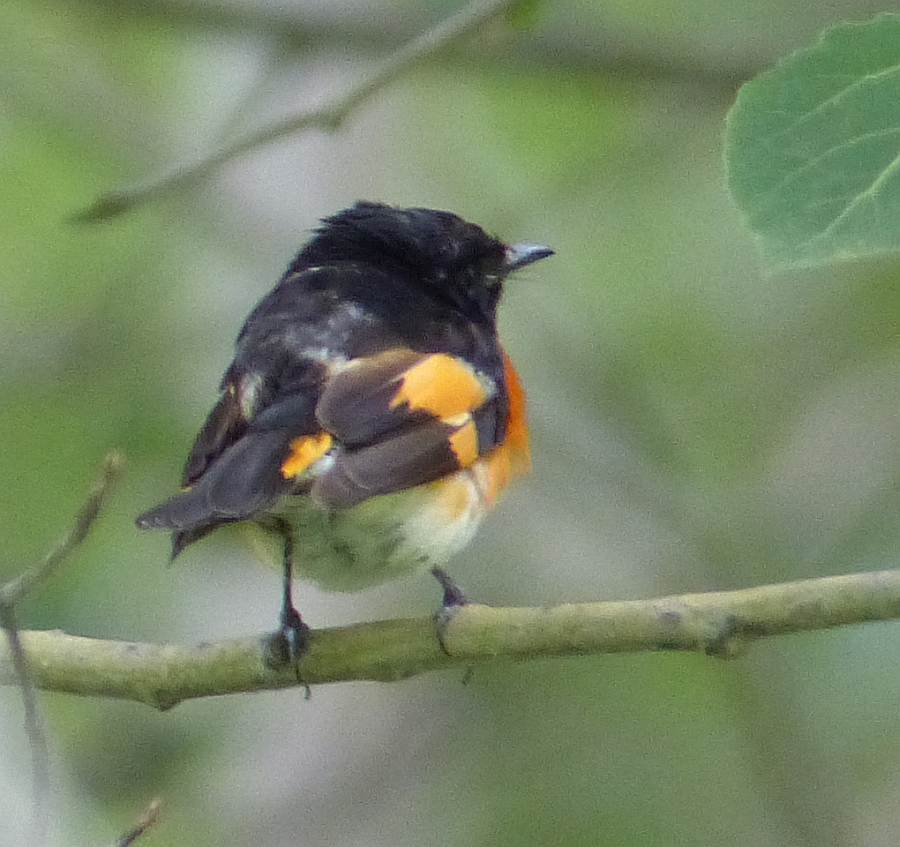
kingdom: Animalia
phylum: Chordata
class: Aves
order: Passeriformes
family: Parulidae
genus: Setophaga
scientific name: Setophaga ruticilla
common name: American redstart
